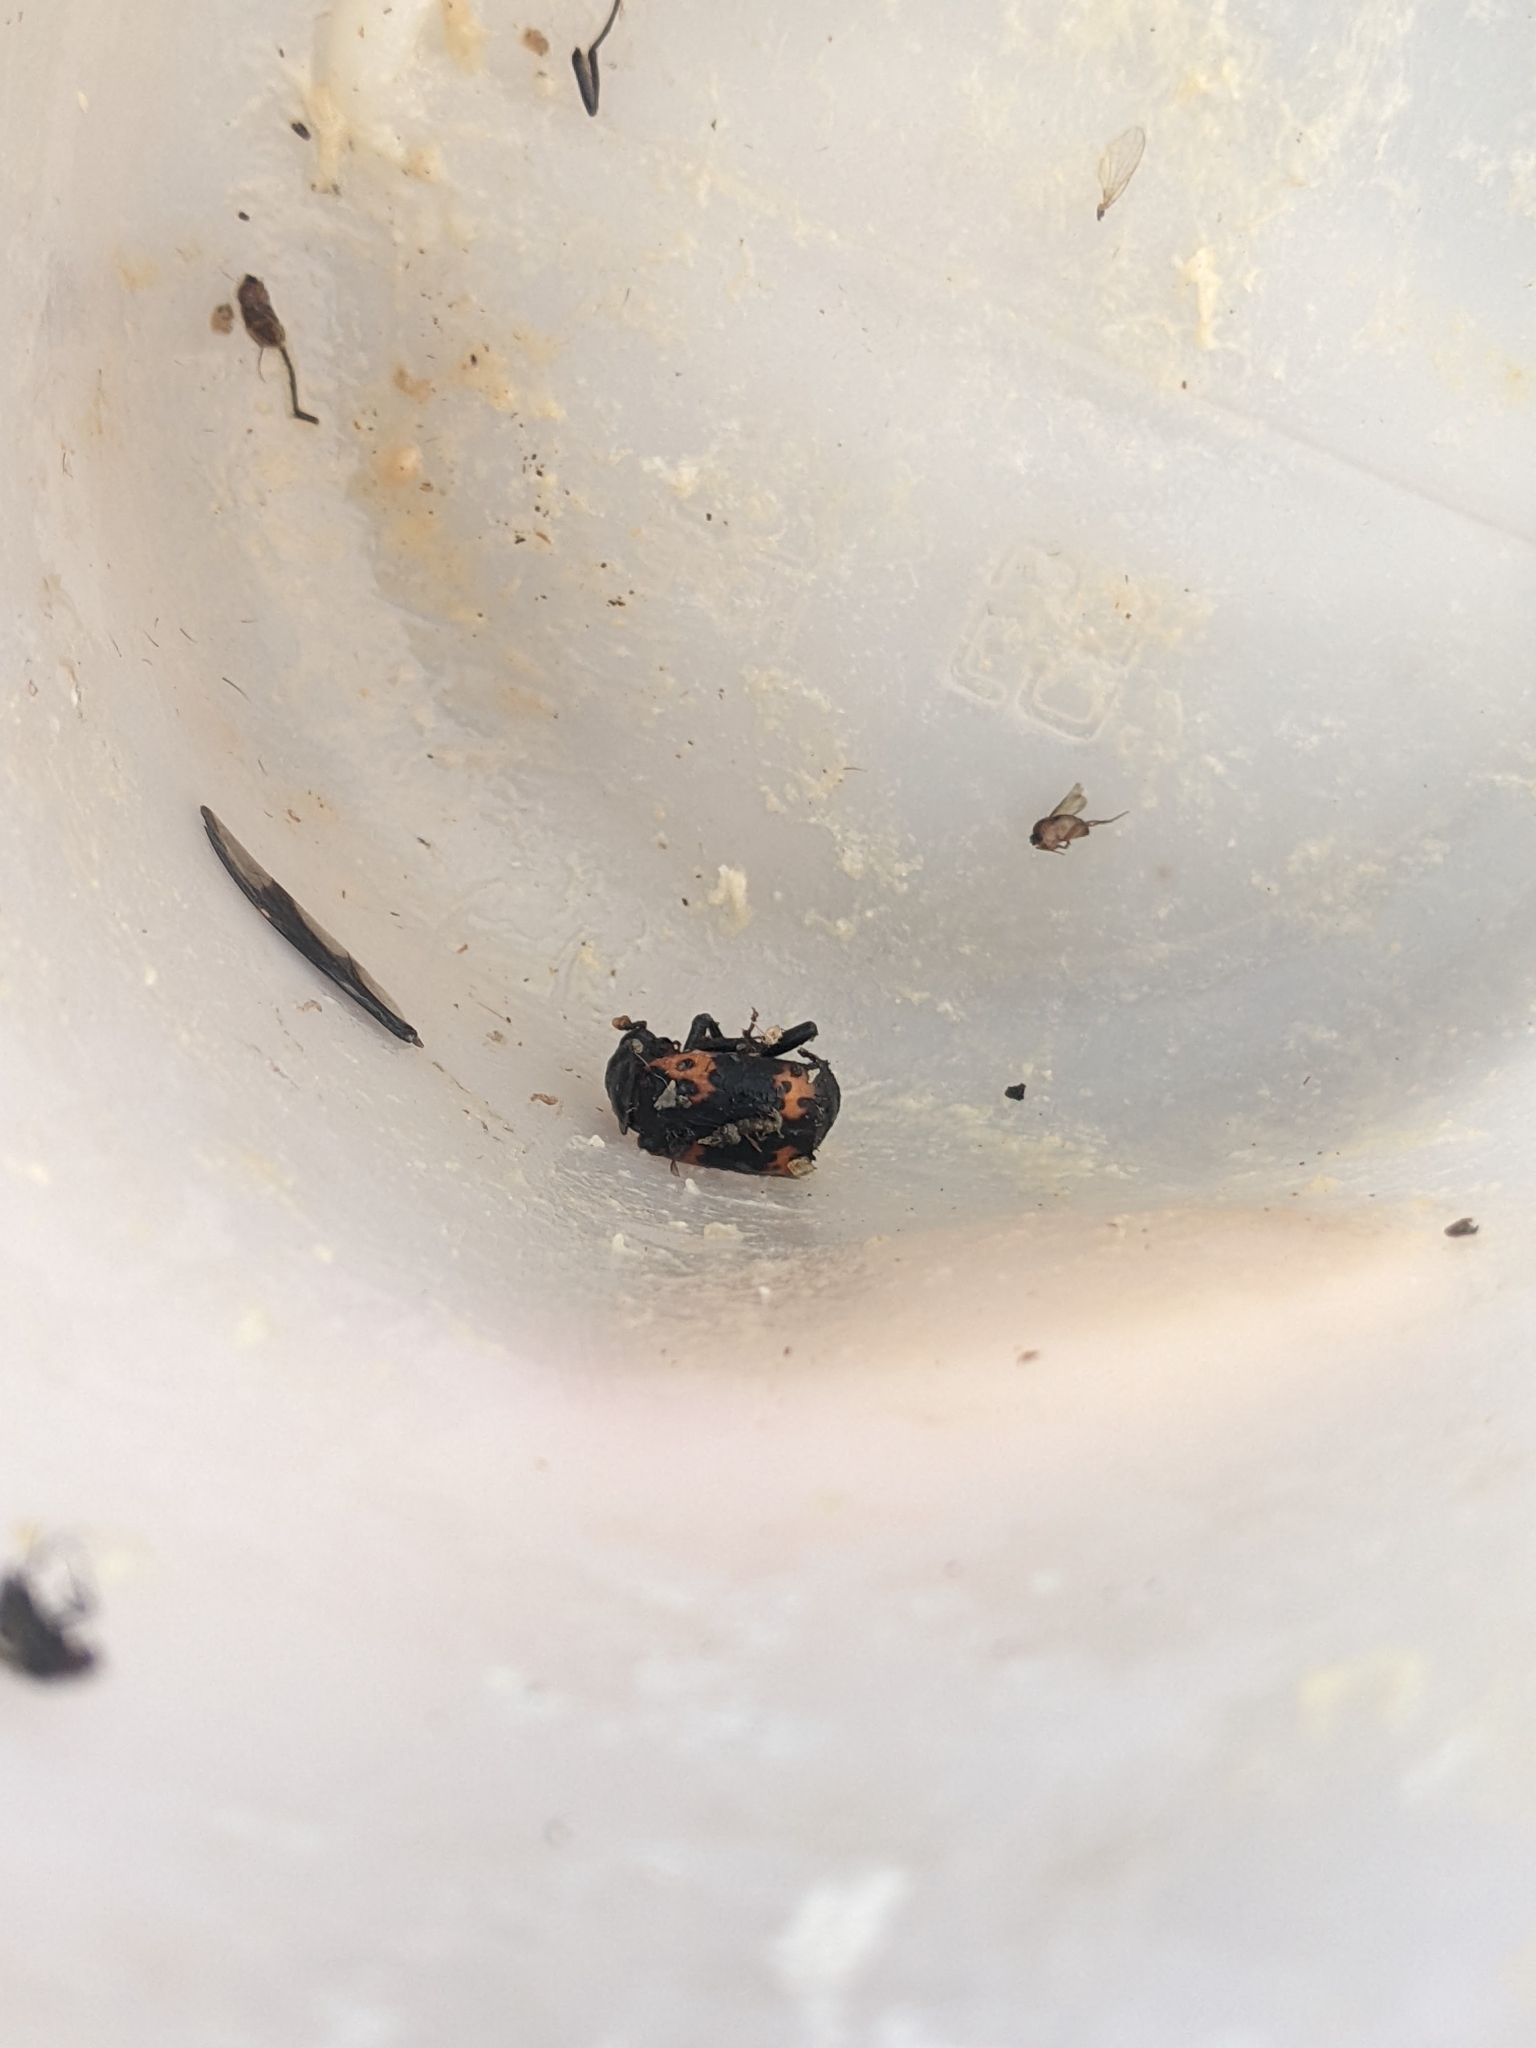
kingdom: Animalia
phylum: Arthropoda
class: Insecta
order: Coleoptera
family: Staphylinidae
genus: Nicrophorus
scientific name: Nicrophorus nepalensis
